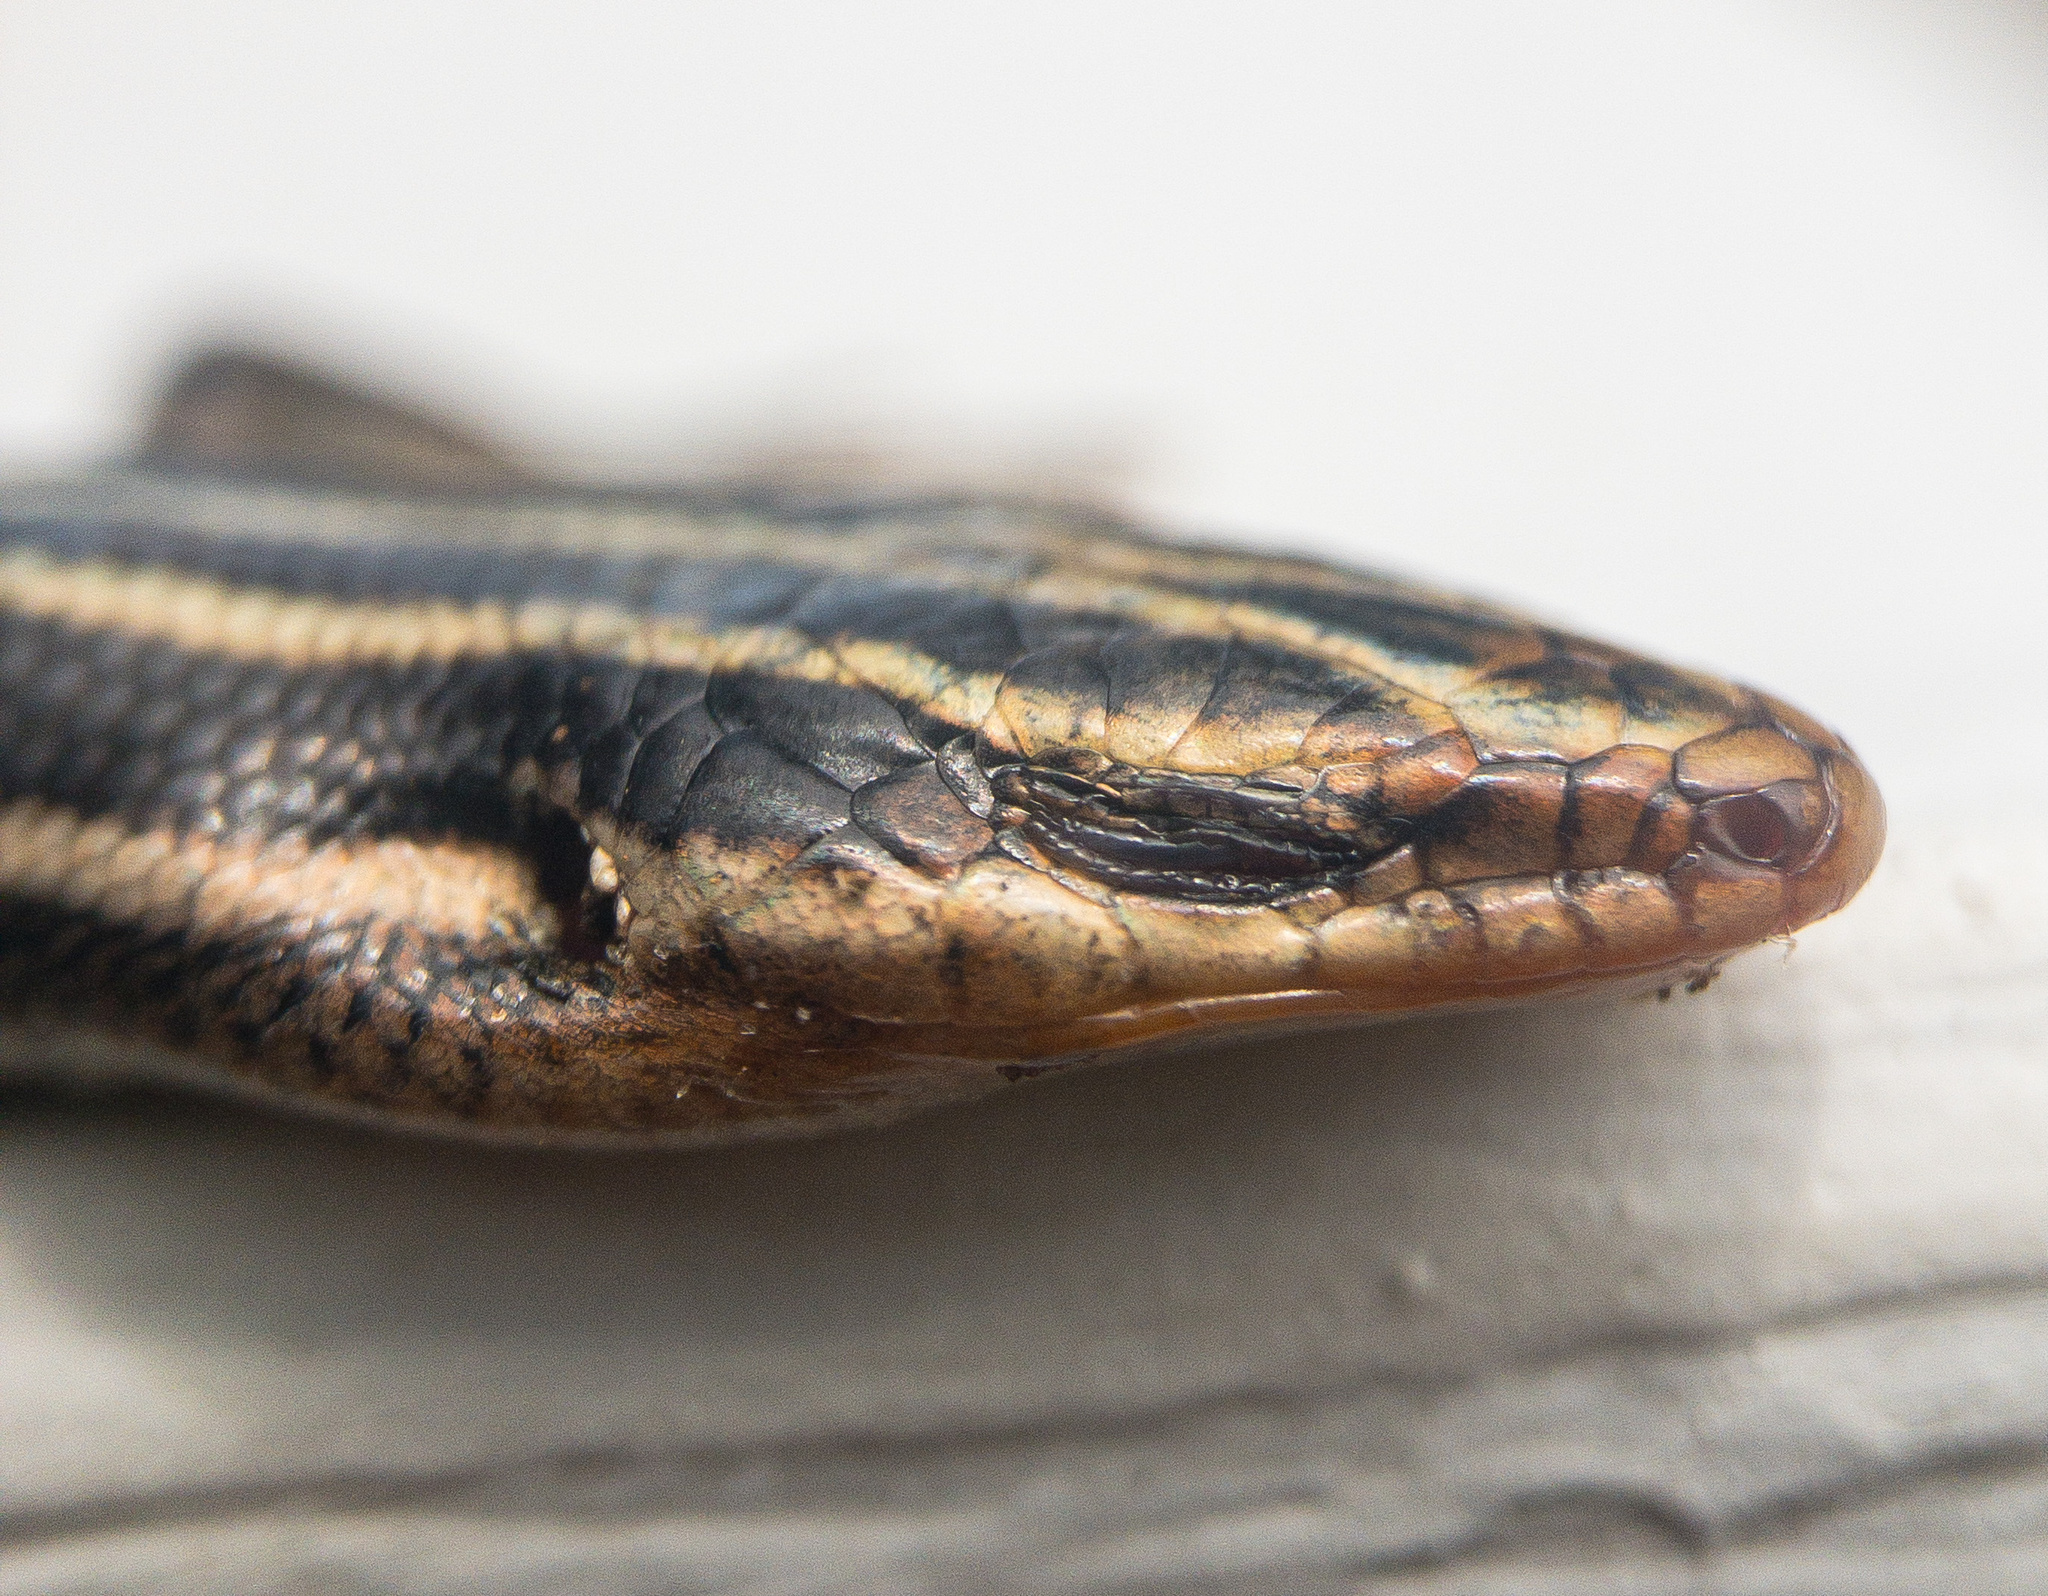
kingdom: Animalia
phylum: Chordata
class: Squamata
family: Scincidae
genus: Plestiodon
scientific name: Plestiodon fasciatus
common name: Five-lined skink
